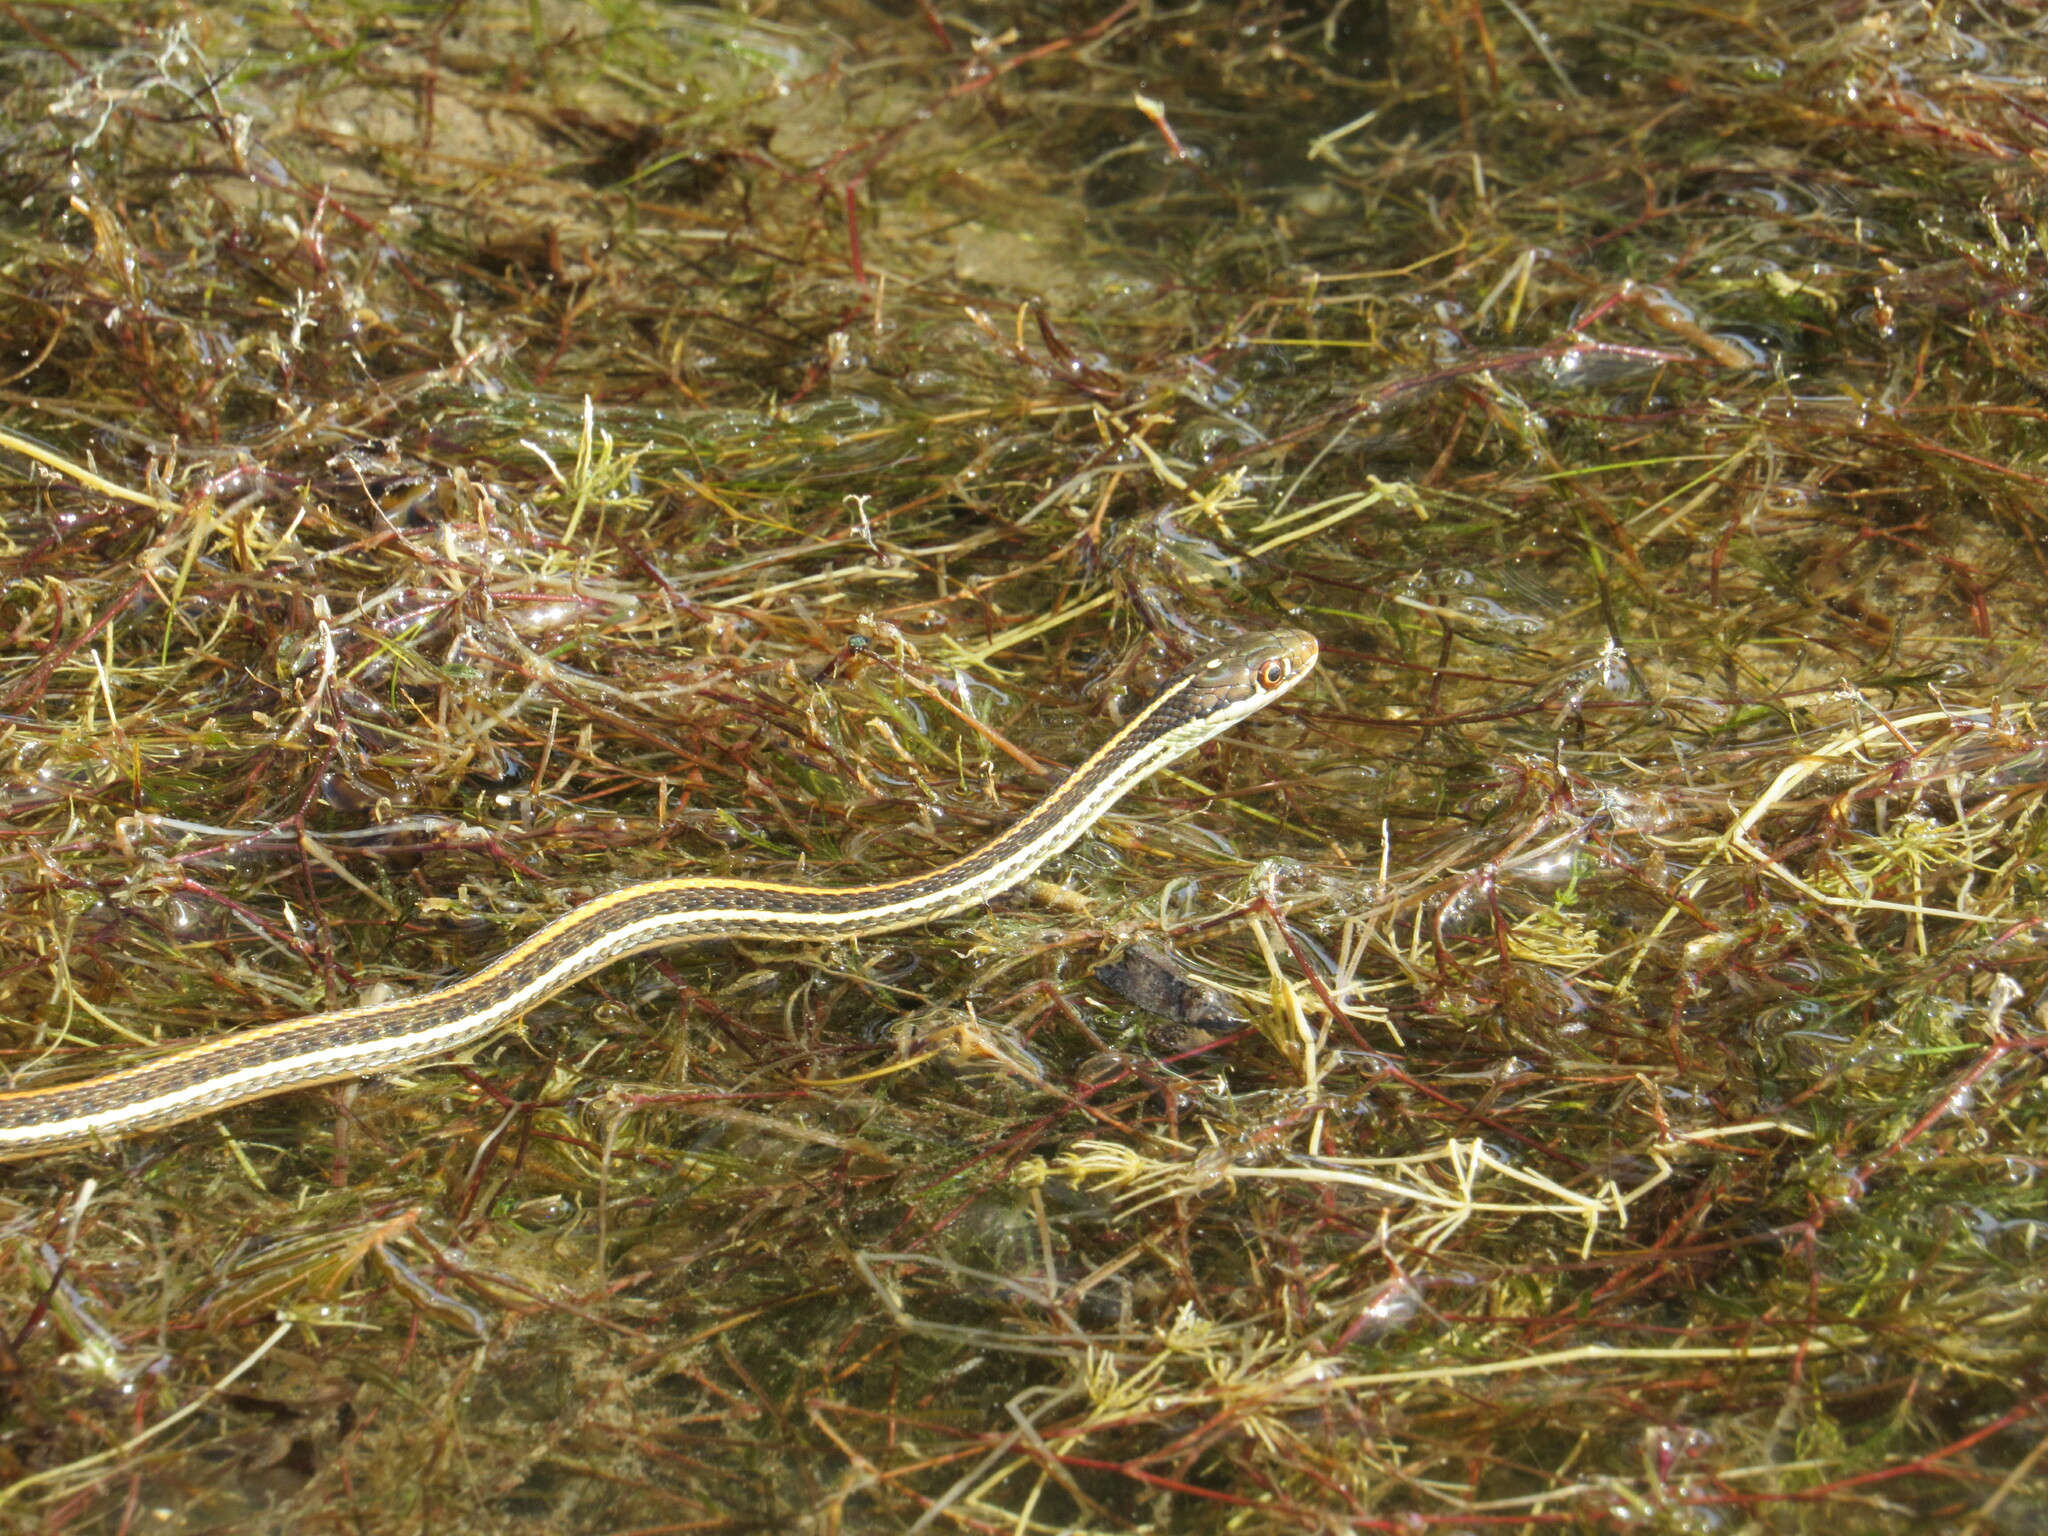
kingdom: Animalia
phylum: Chordata
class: Squamata
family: Colubridae
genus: Thamnophis
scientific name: Thamnophis proximus
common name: Western ribbon snake
